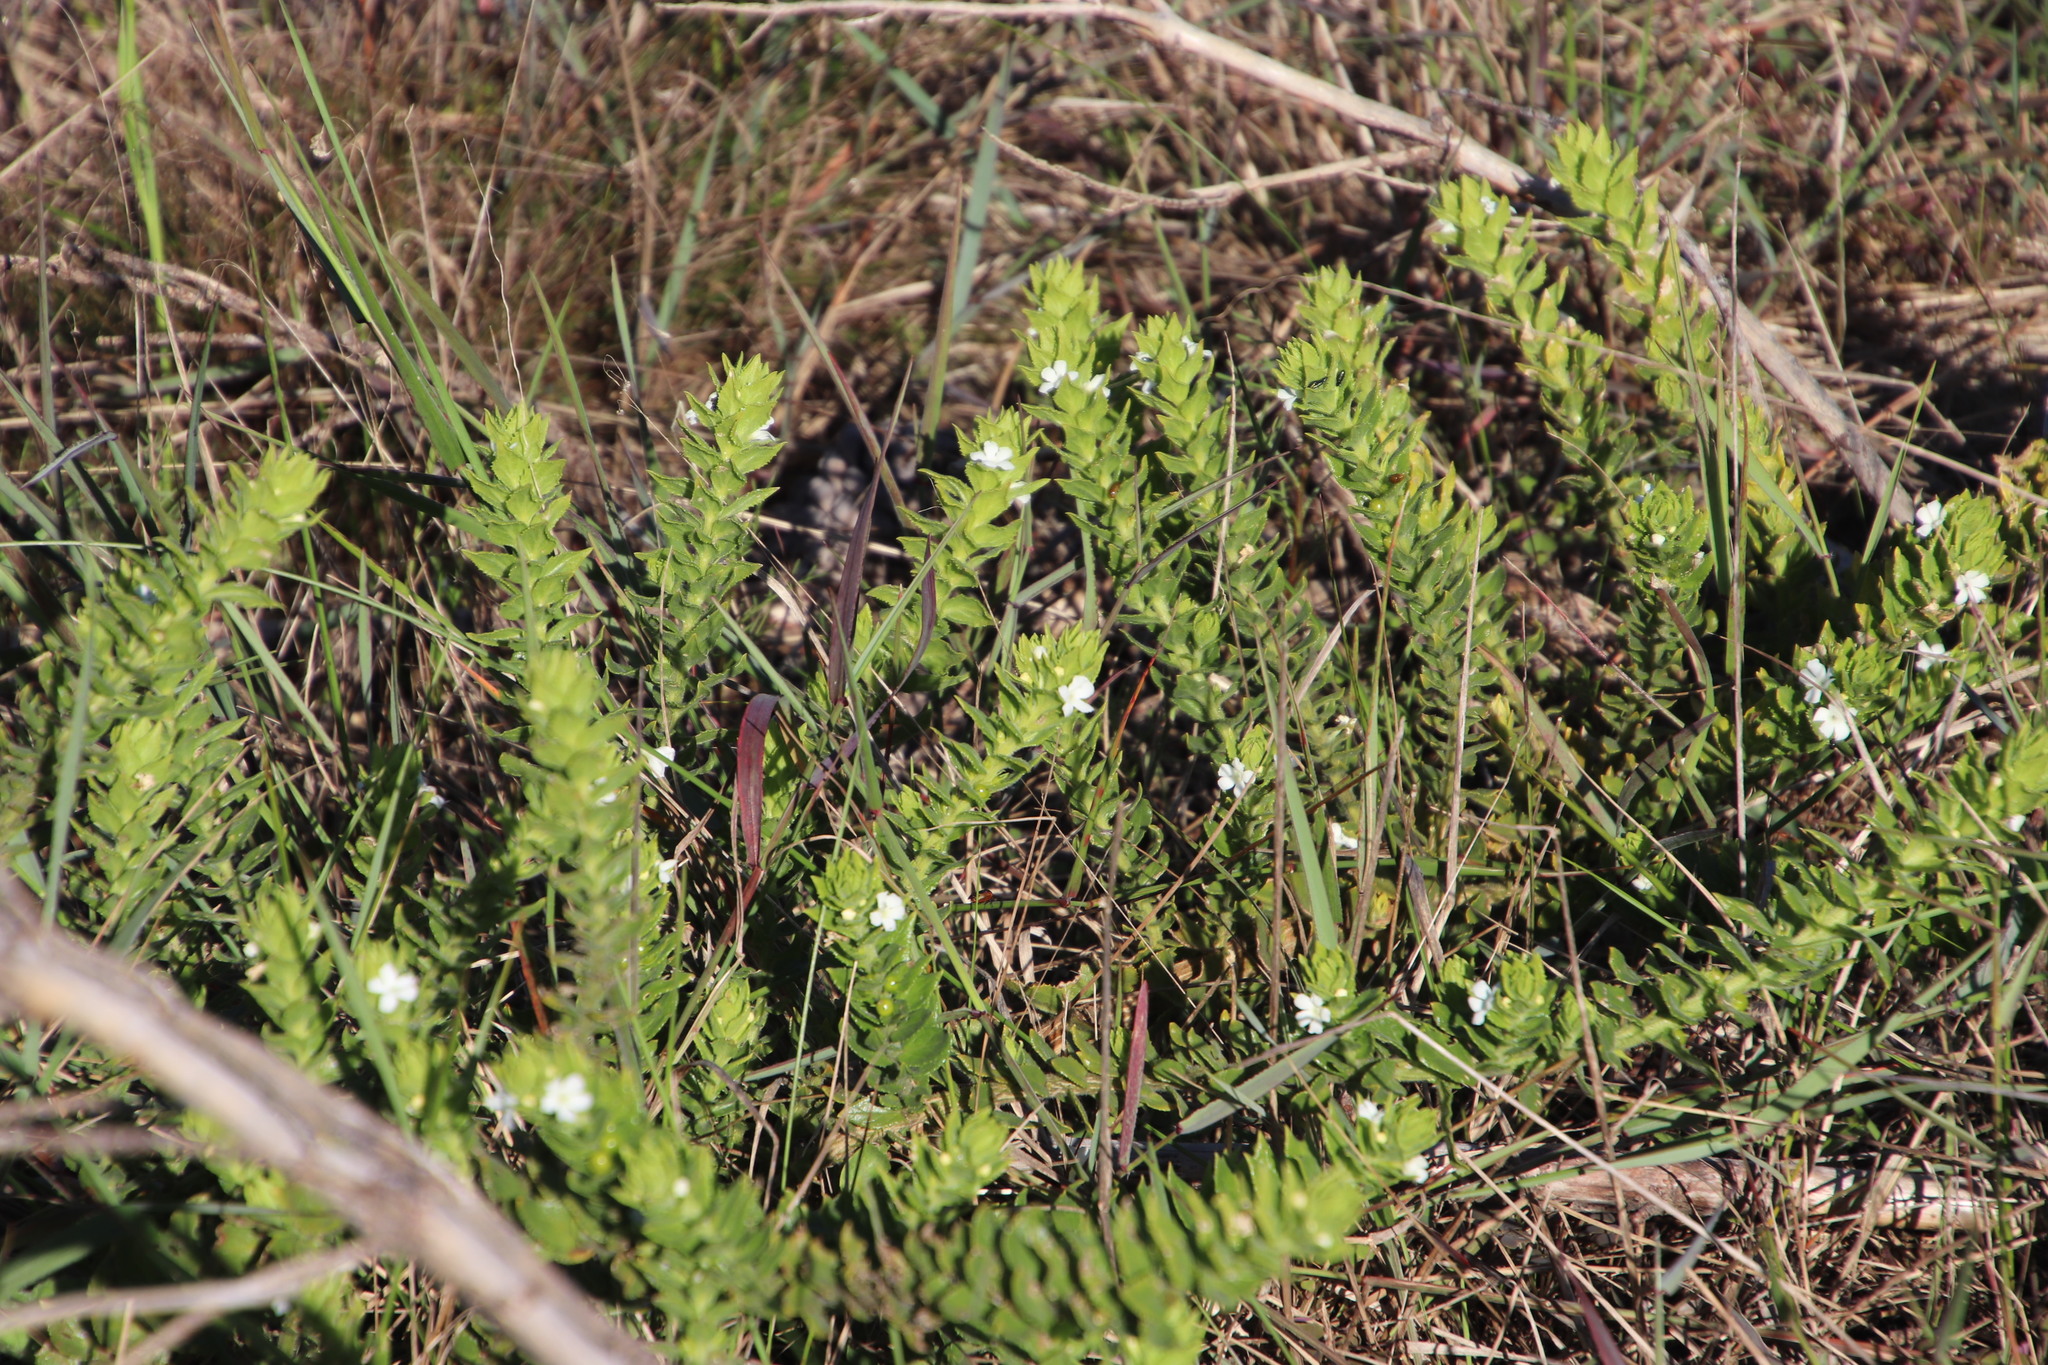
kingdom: Plantae
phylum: Tracheophyta
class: Magnoliopsida
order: Lamiales
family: Scrophulariaceae
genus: Oftia
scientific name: Oftia africana
